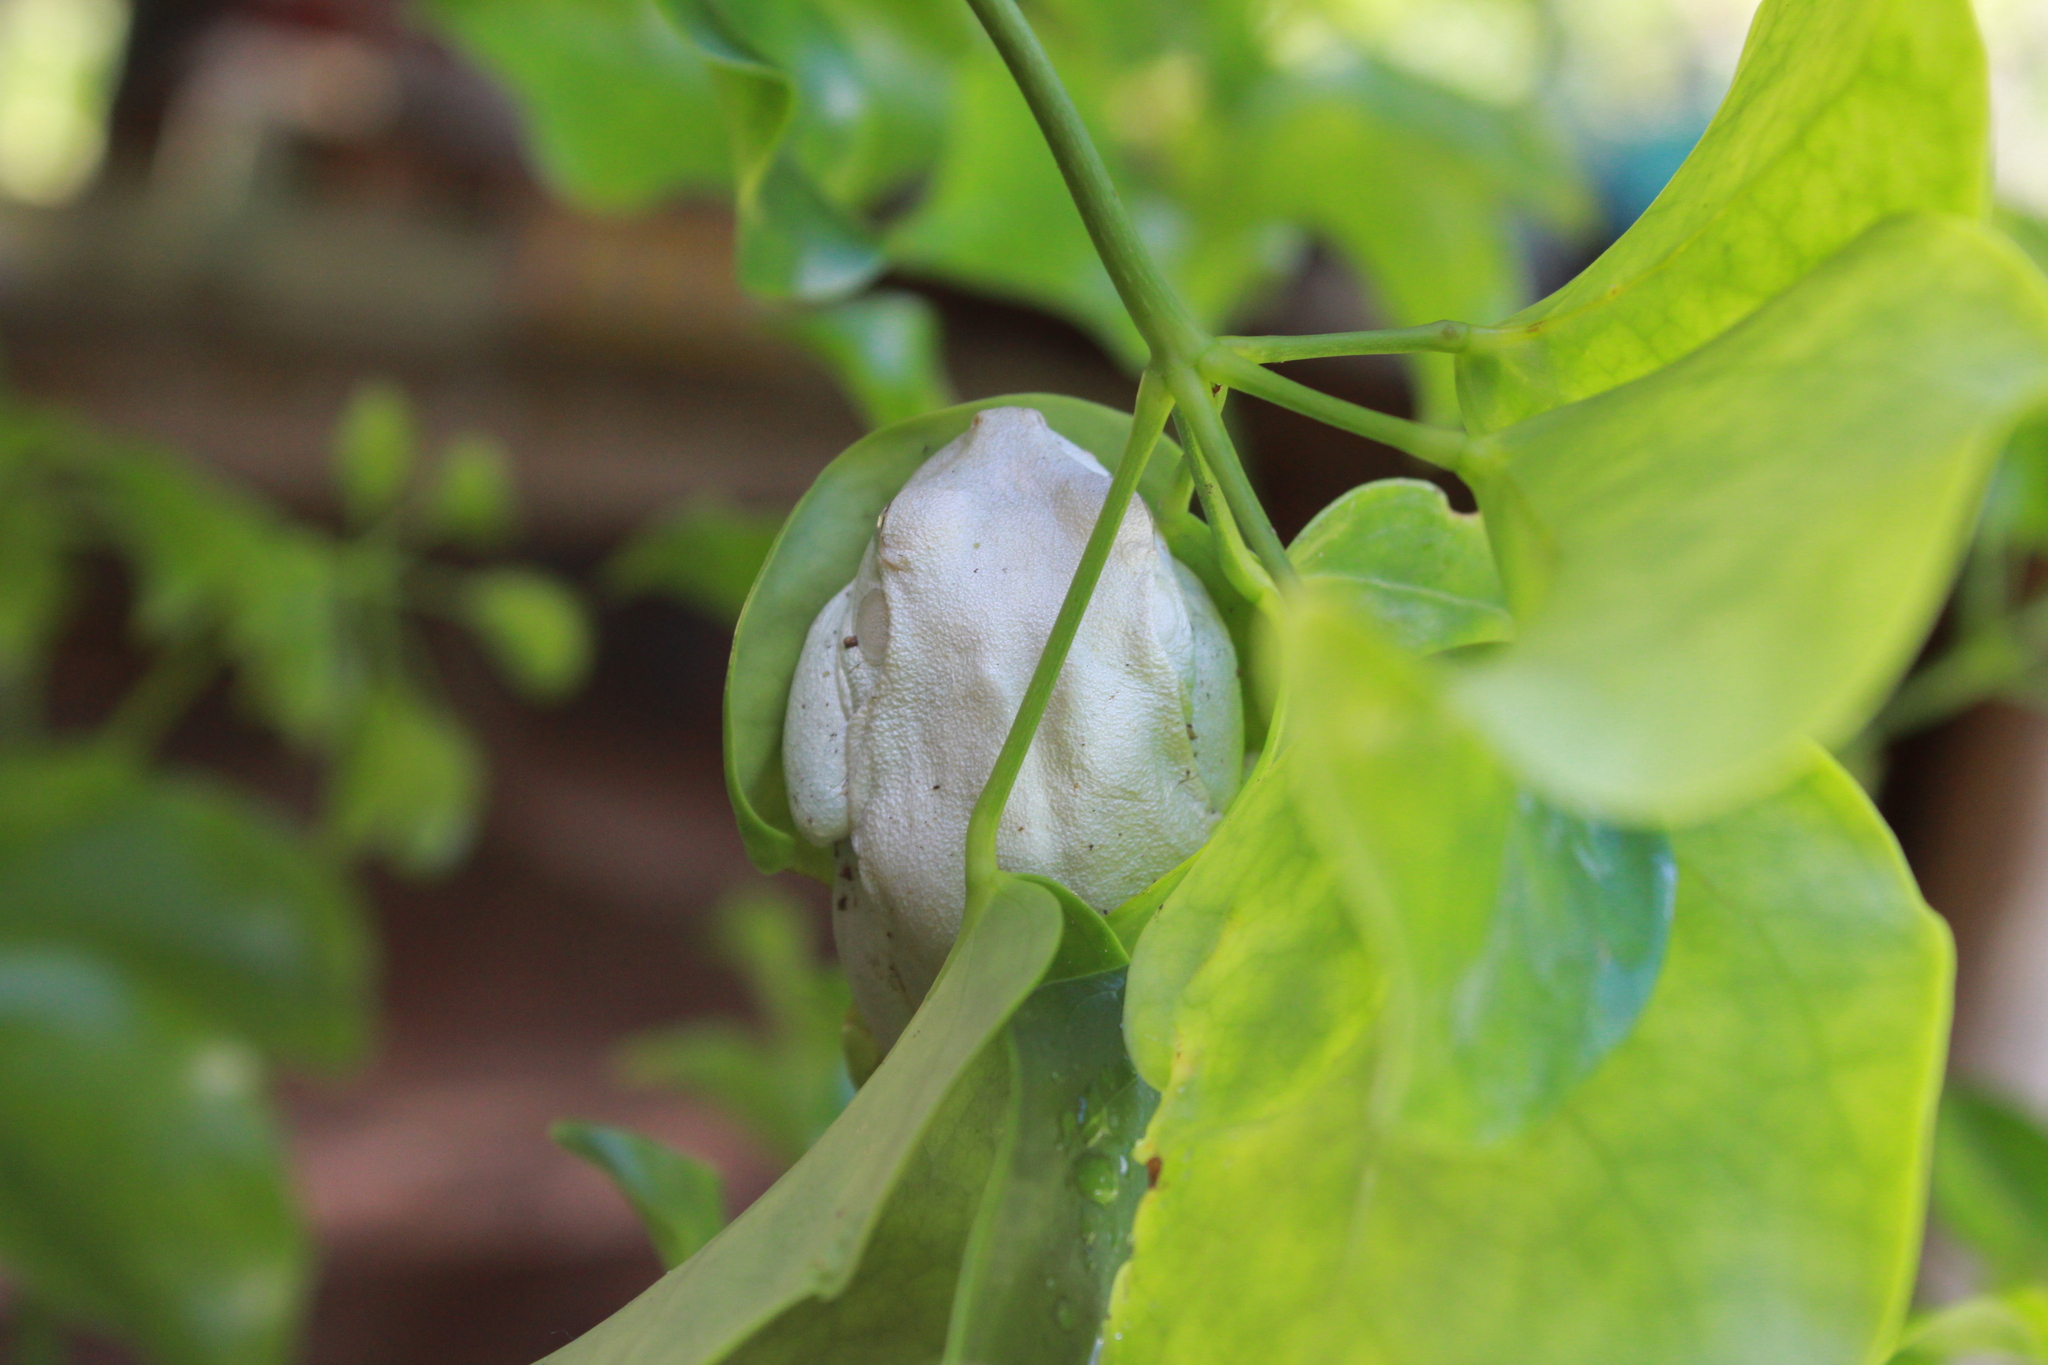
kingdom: Animalia
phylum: Chordata
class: Amphibia
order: Anura
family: Hylidae
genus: Boana
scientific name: Boana platanera
